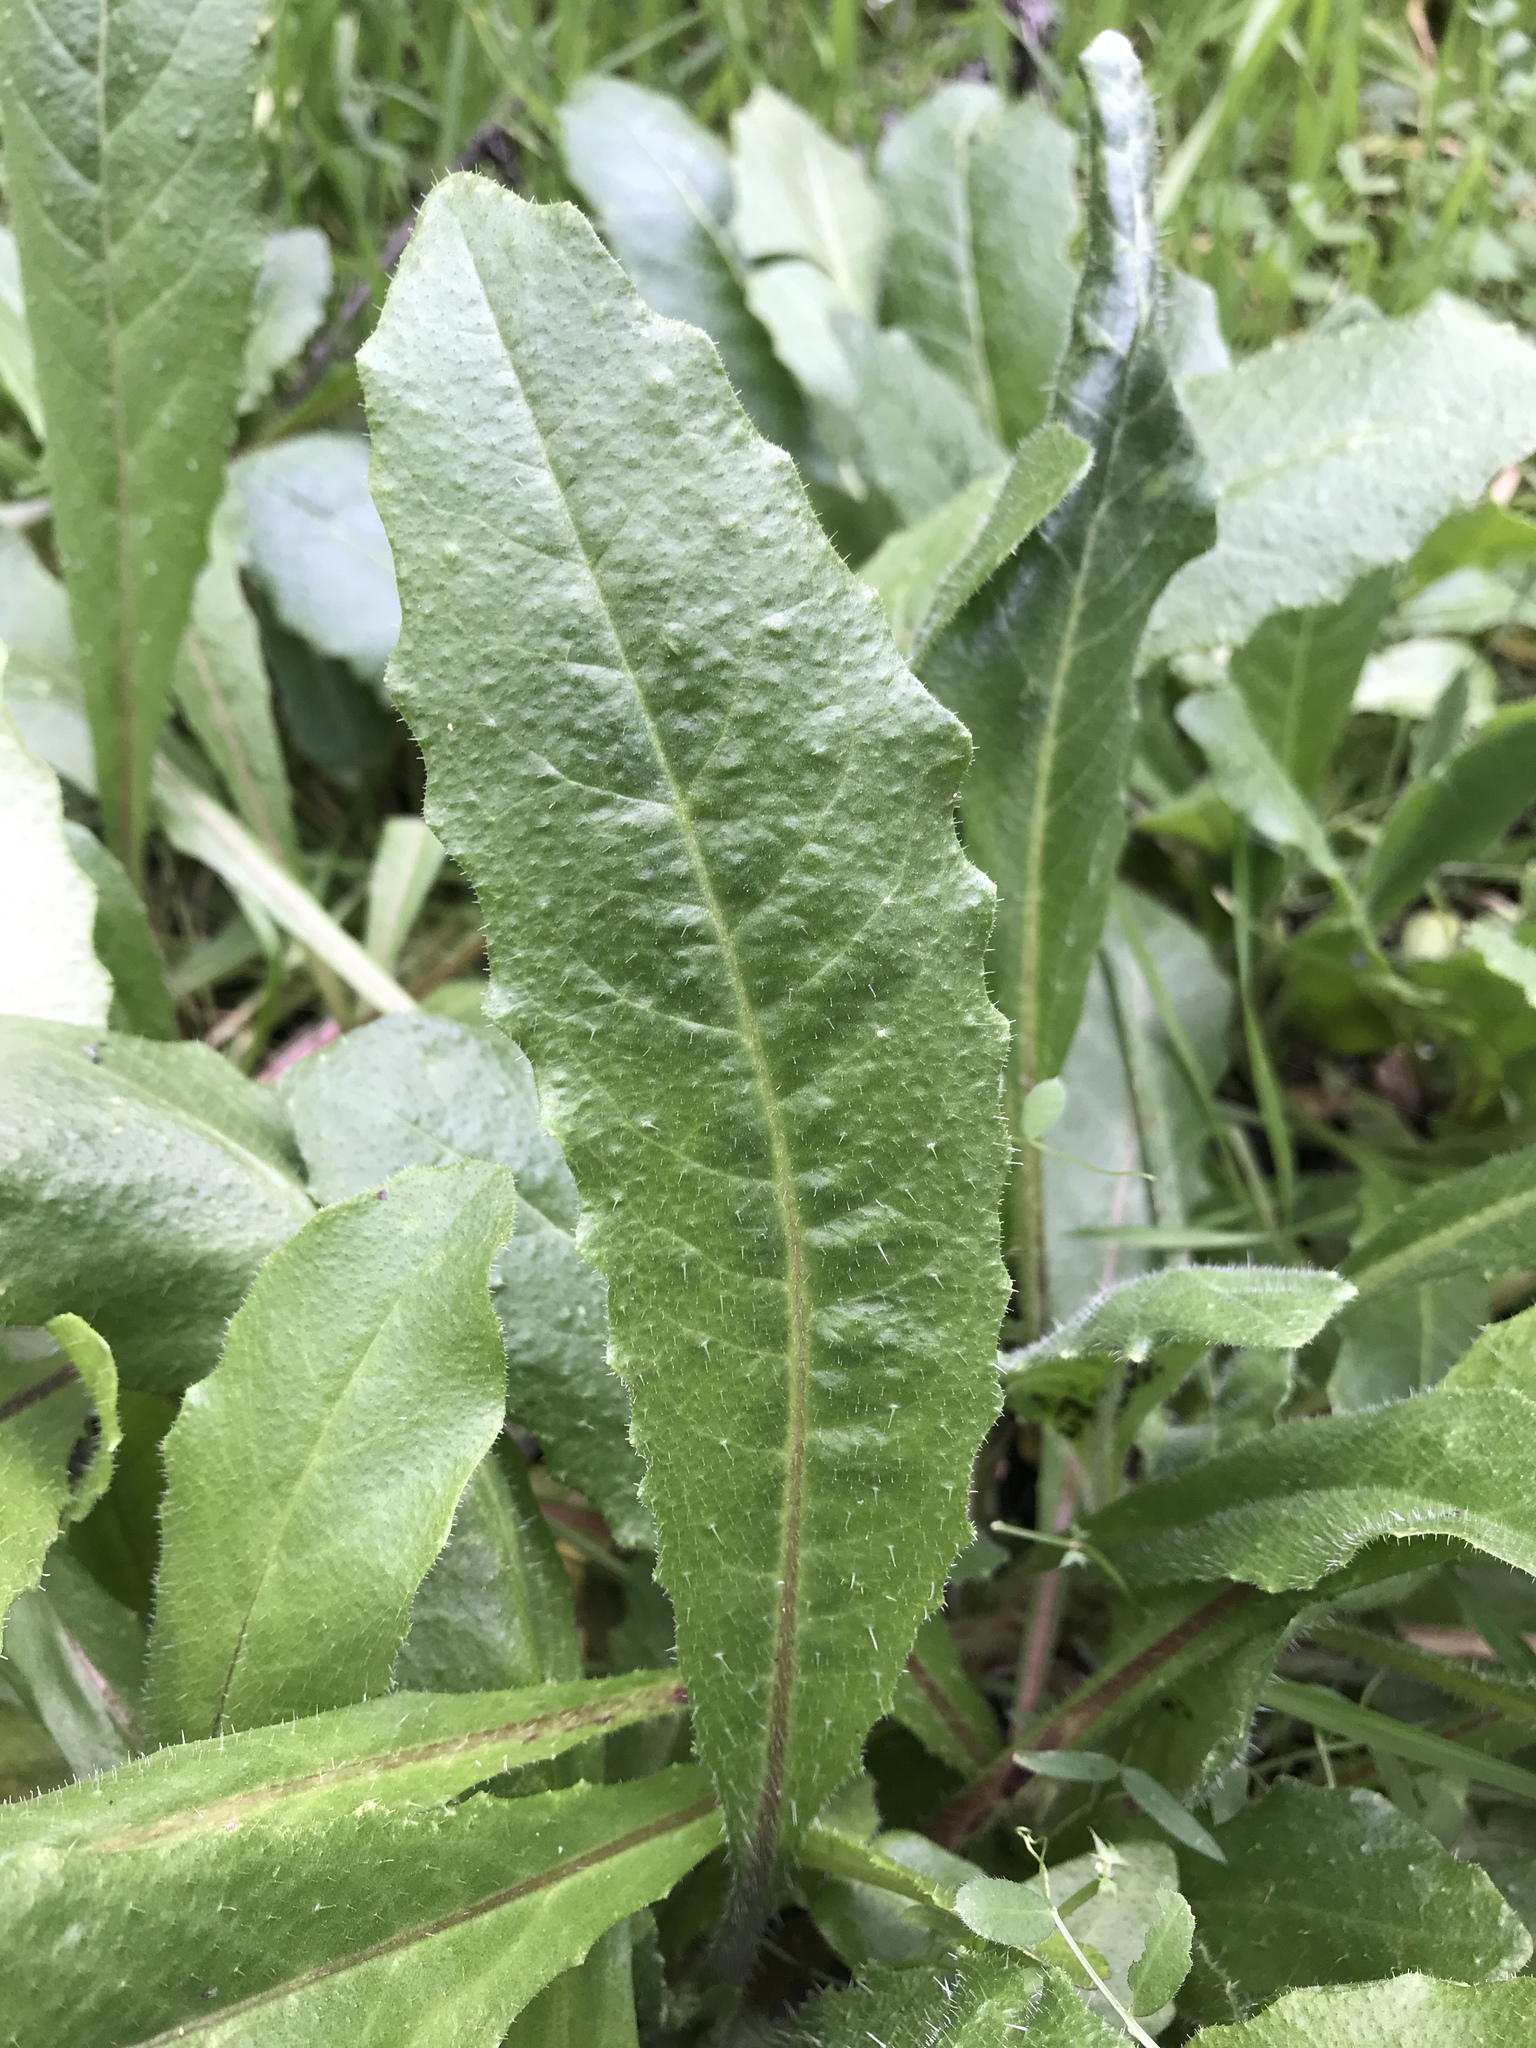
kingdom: Plantae
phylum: Tracheophyta
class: Magnoliopsida
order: Asterales
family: Asteraceae
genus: Helminthotheca
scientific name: Helminthotheca echioides
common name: Ox-tongue
